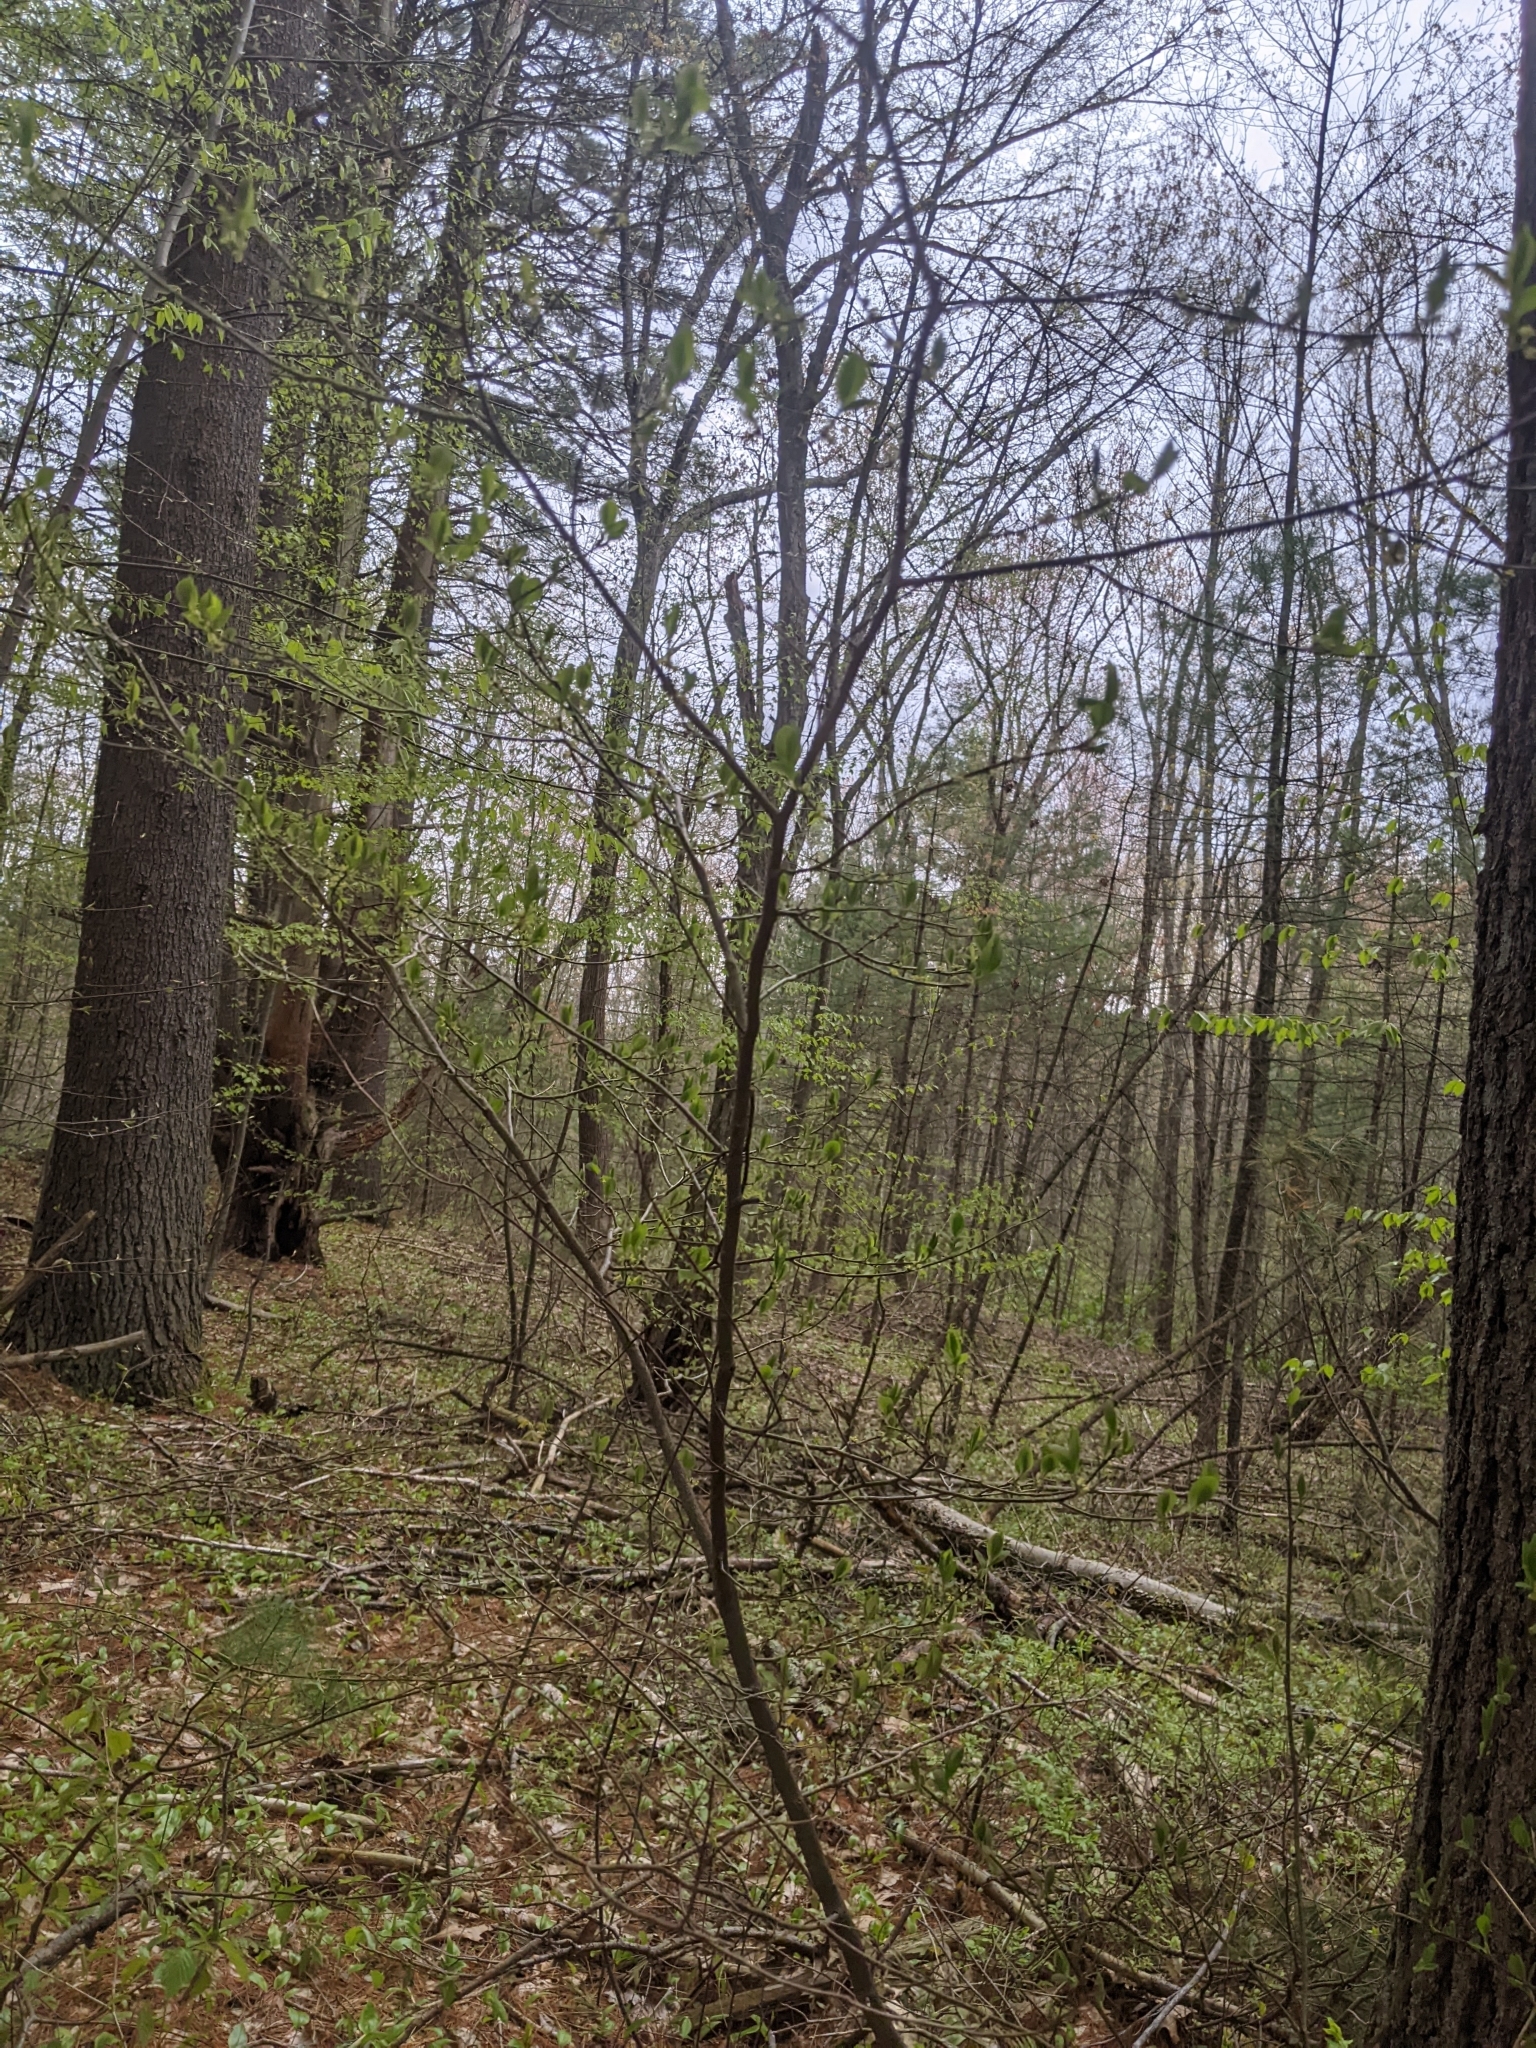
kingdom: Plantae
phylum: Tracheophyta
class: Magnoliopsida
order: Laurales
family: Lauraceae
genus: Lindera
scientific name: Lindera benzoin
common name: Spicebush
